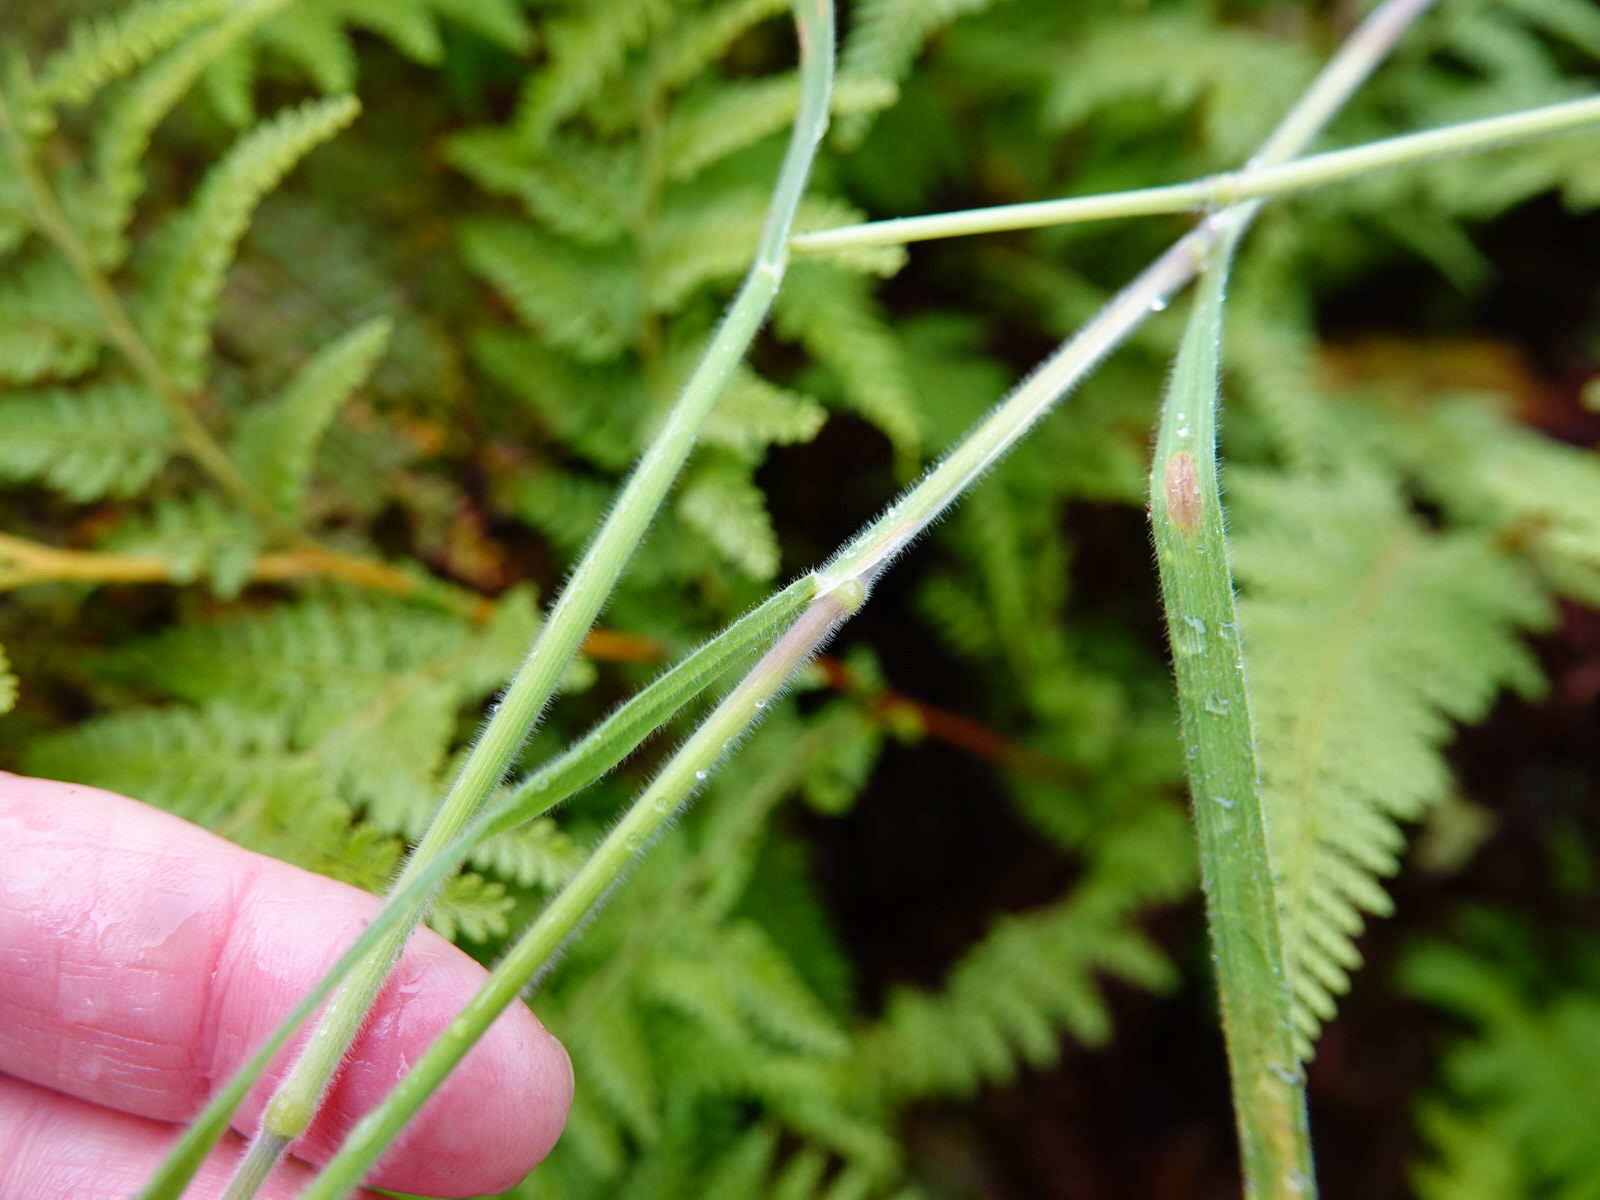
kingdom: Plantae
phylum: Tracheophyta
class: Liliopsida
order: Poales
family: Poaceae
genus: Holcus
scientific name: Holcus lanatus
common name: Yorkshire-fog
